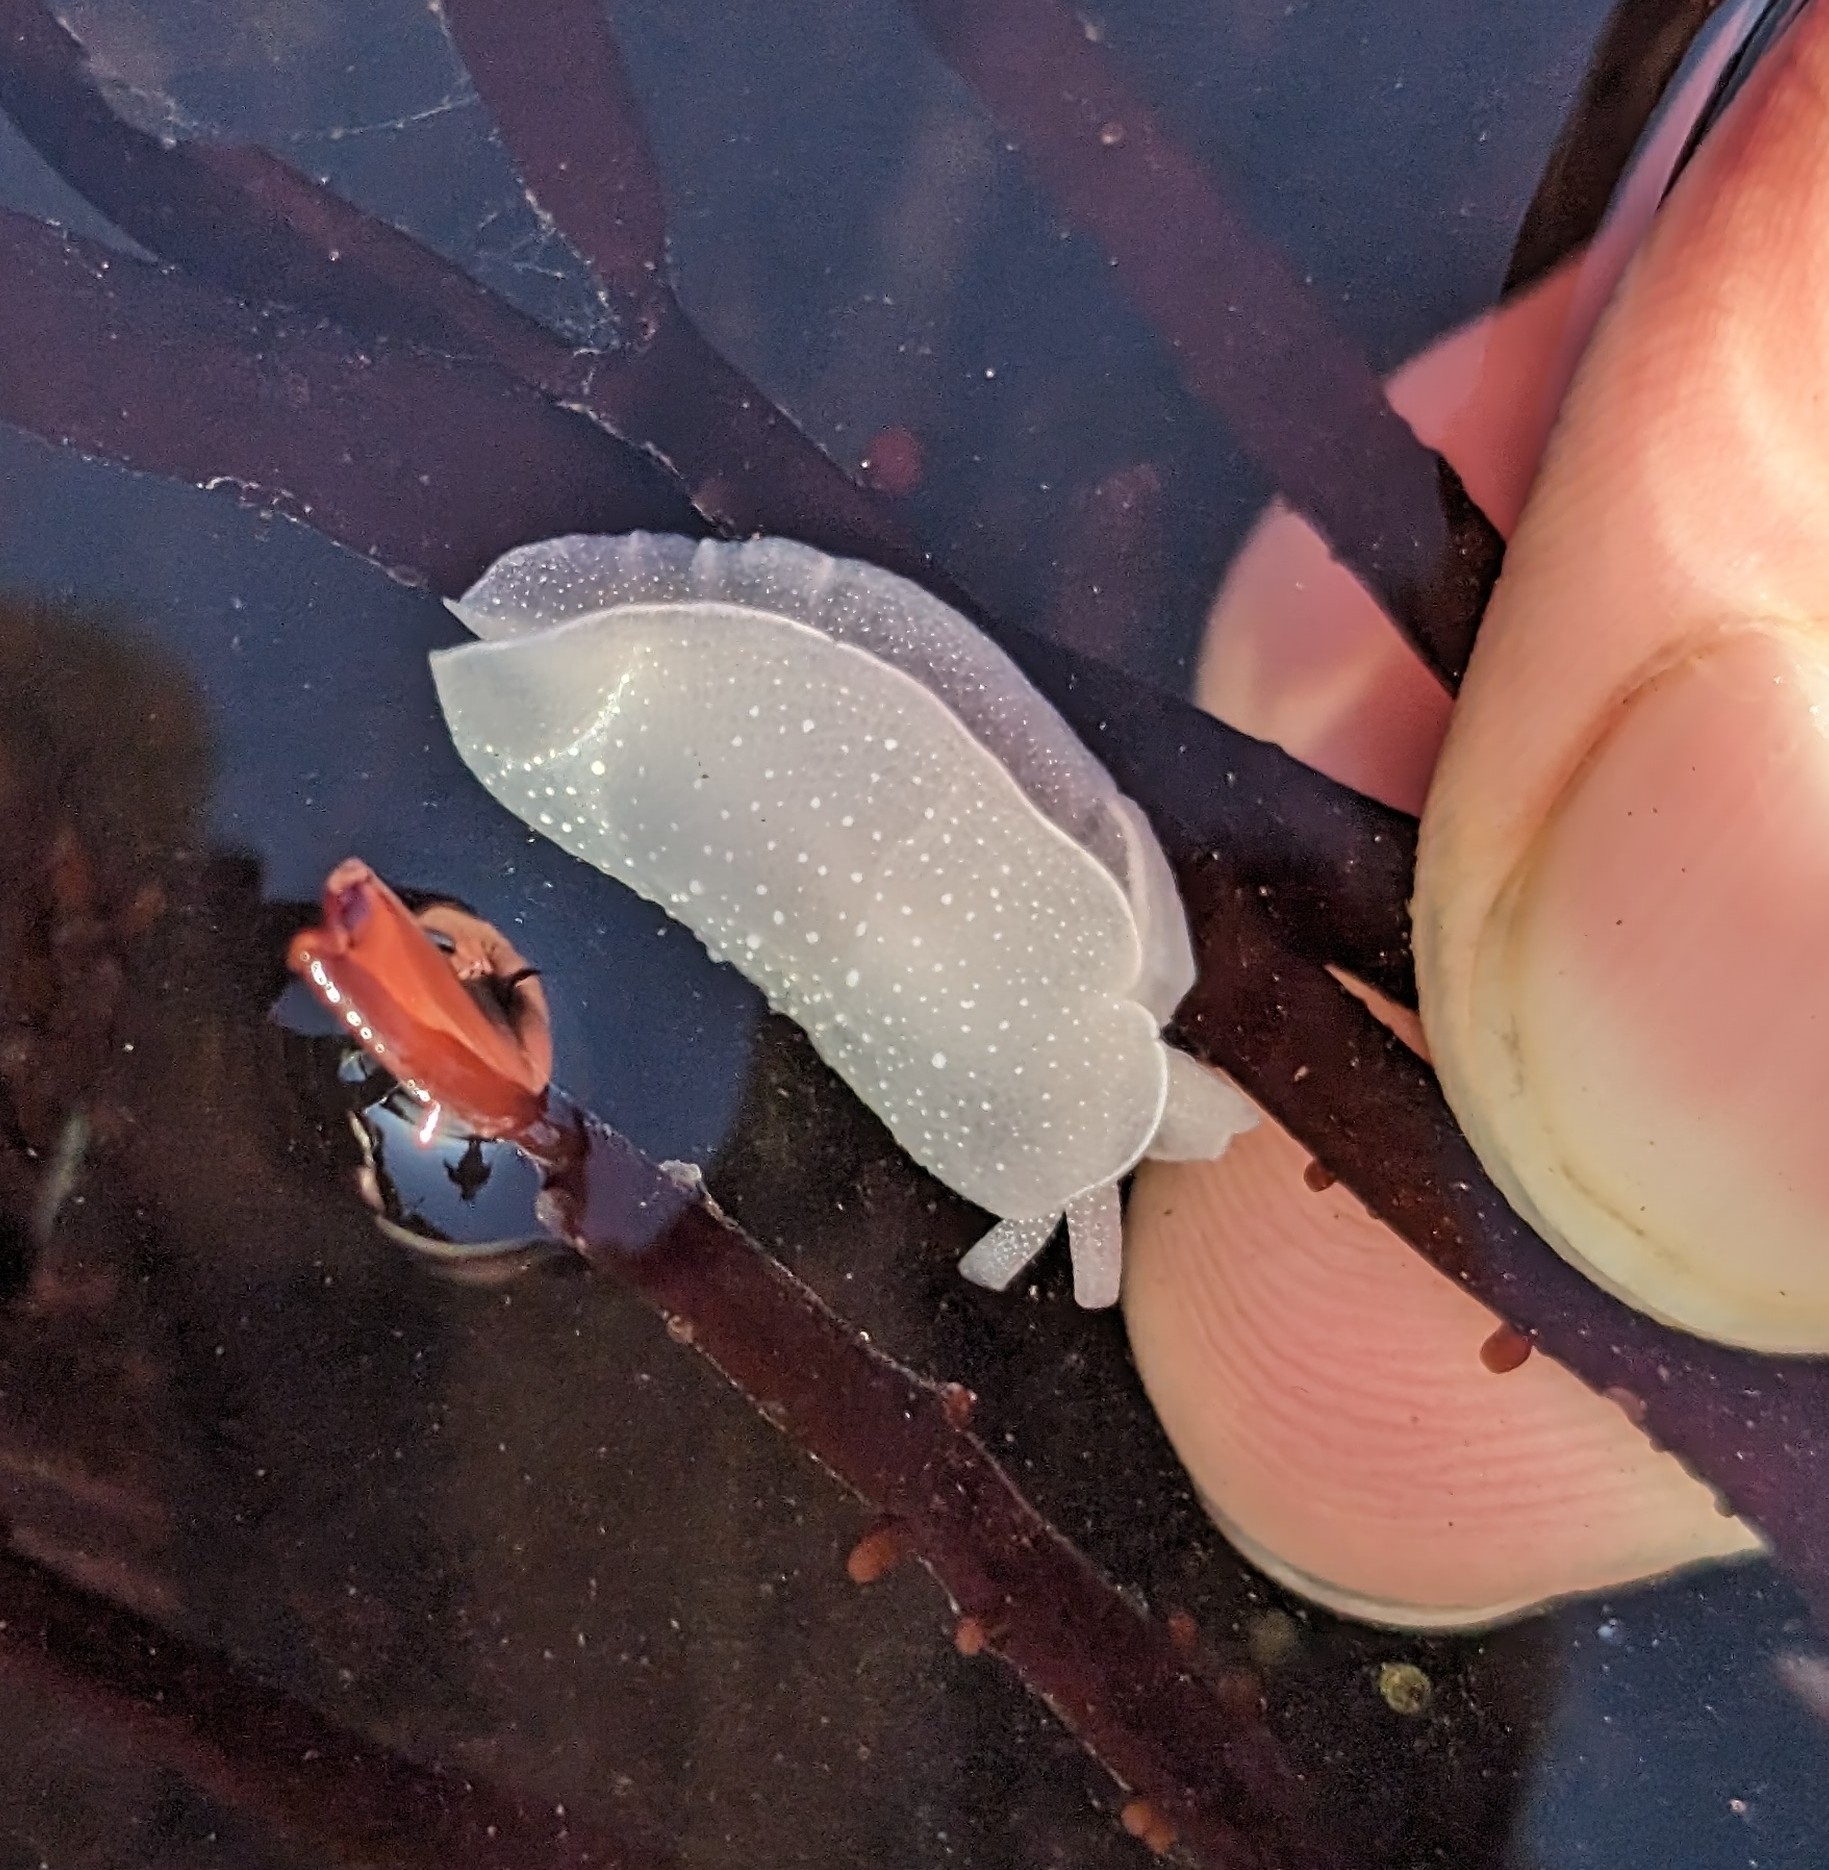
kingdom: Animalia
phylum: Mollusca
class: Gastropoda
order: Pleurobranchida
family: Pleurobranchidae
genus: Boreoberthella
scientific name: Boreoberthella
